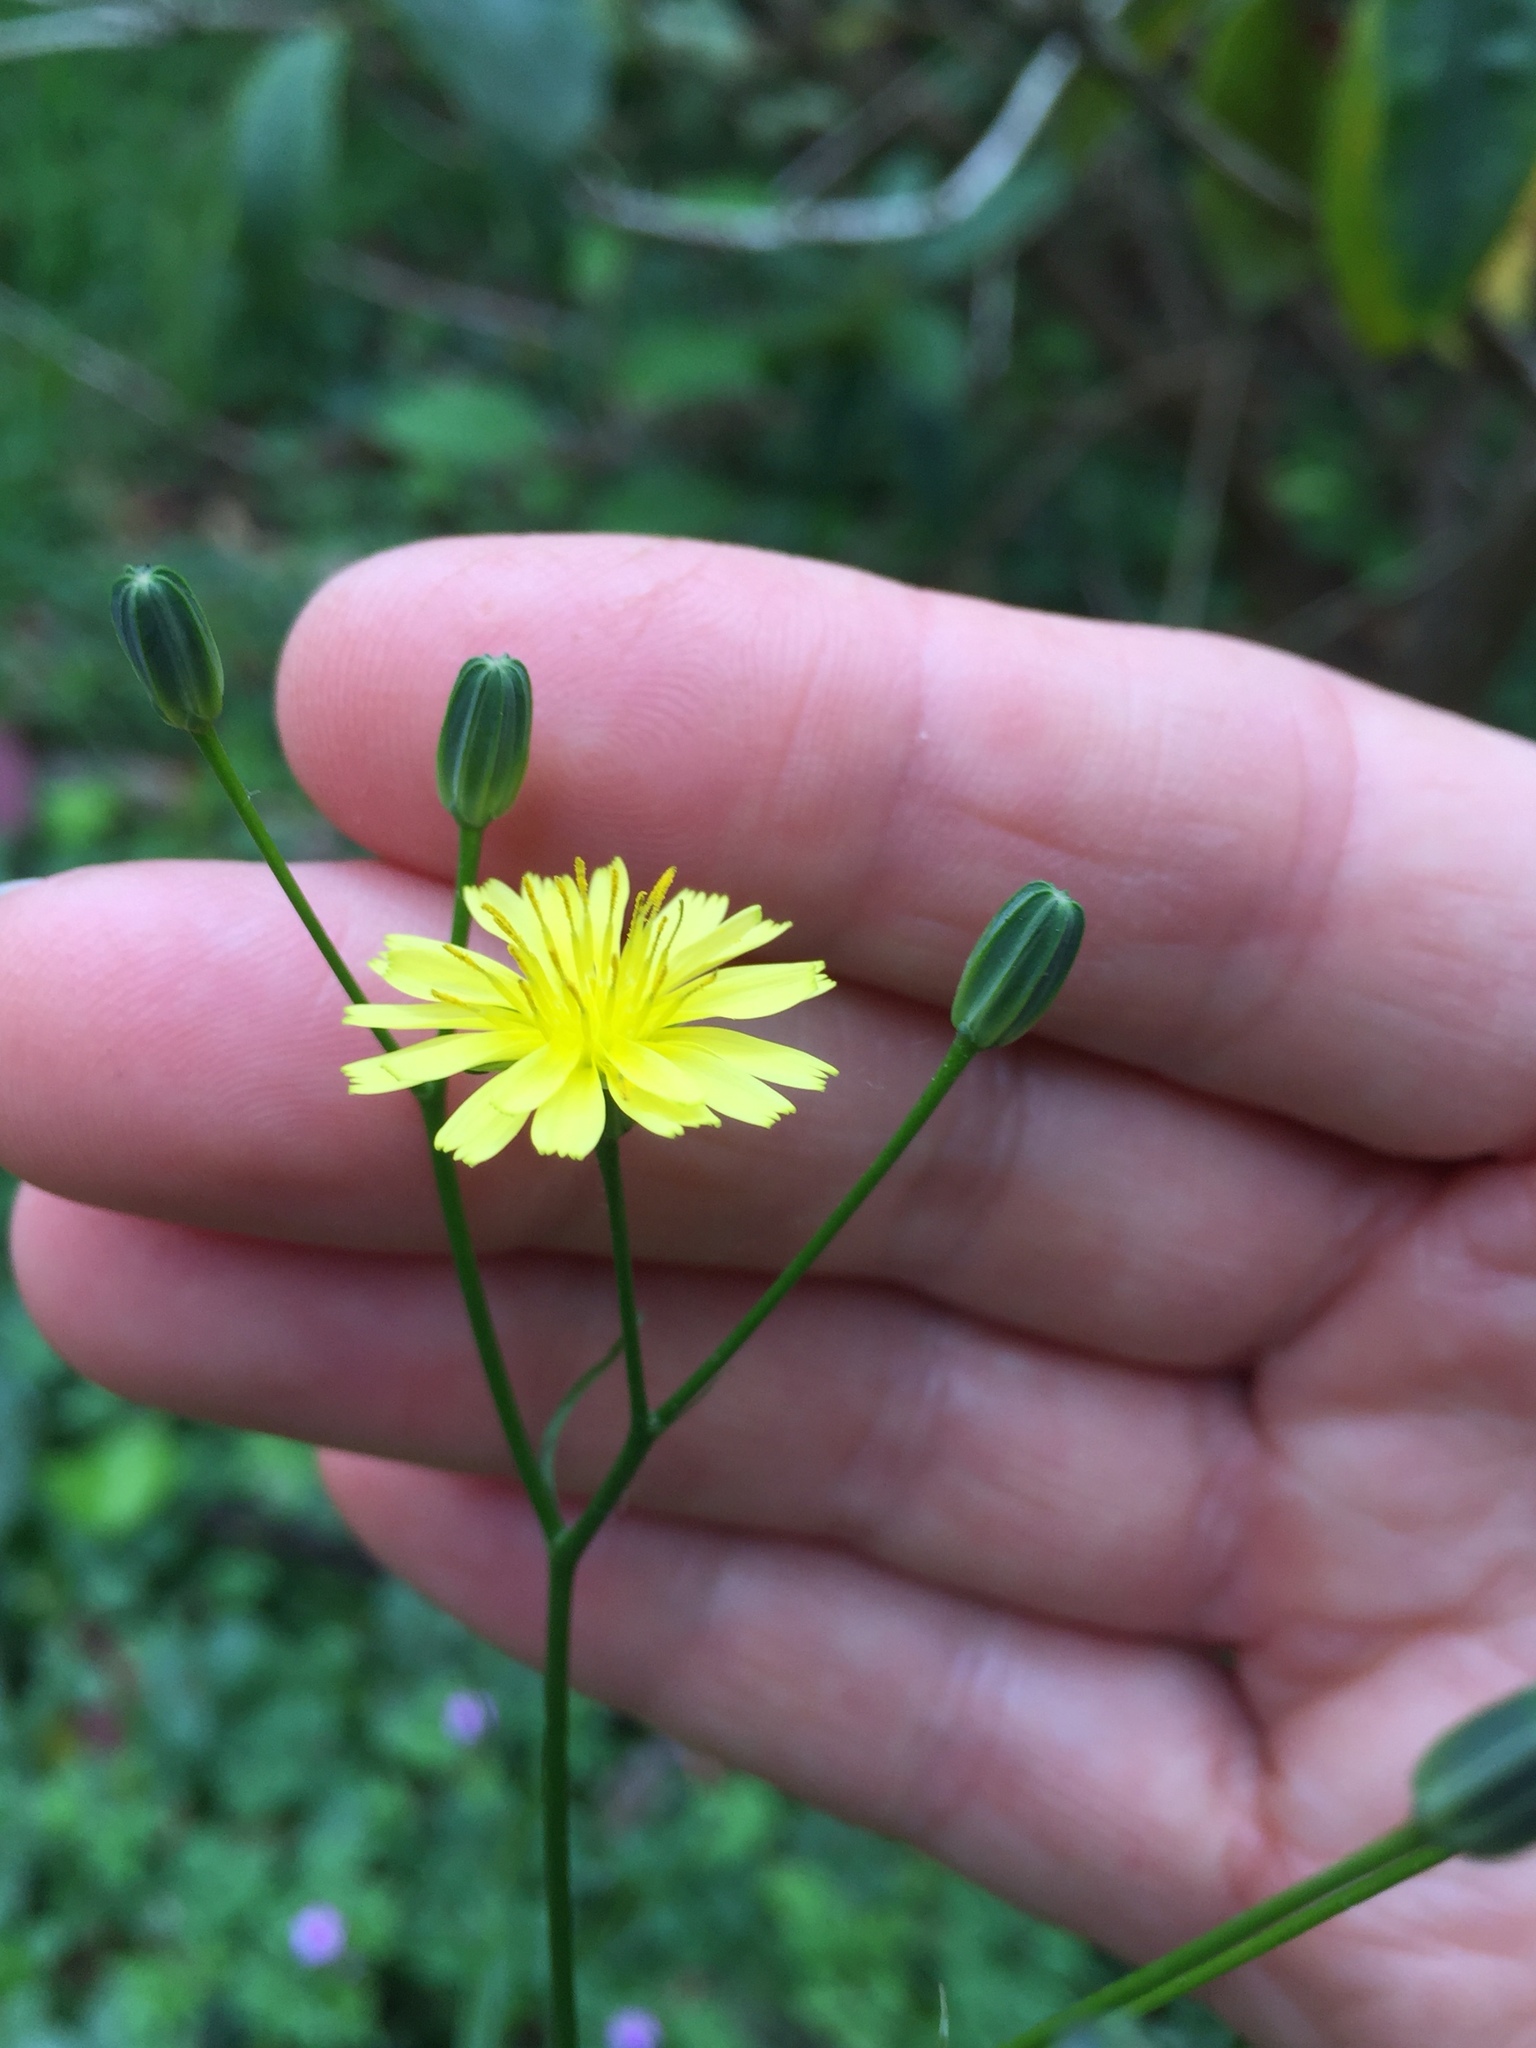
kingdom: Plantae
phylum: Tracheophyta
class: Magnoliopsida
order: Asterales
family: Asteraceae
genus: Lapsana
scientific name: Lapsana communis
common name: Nipplewort
